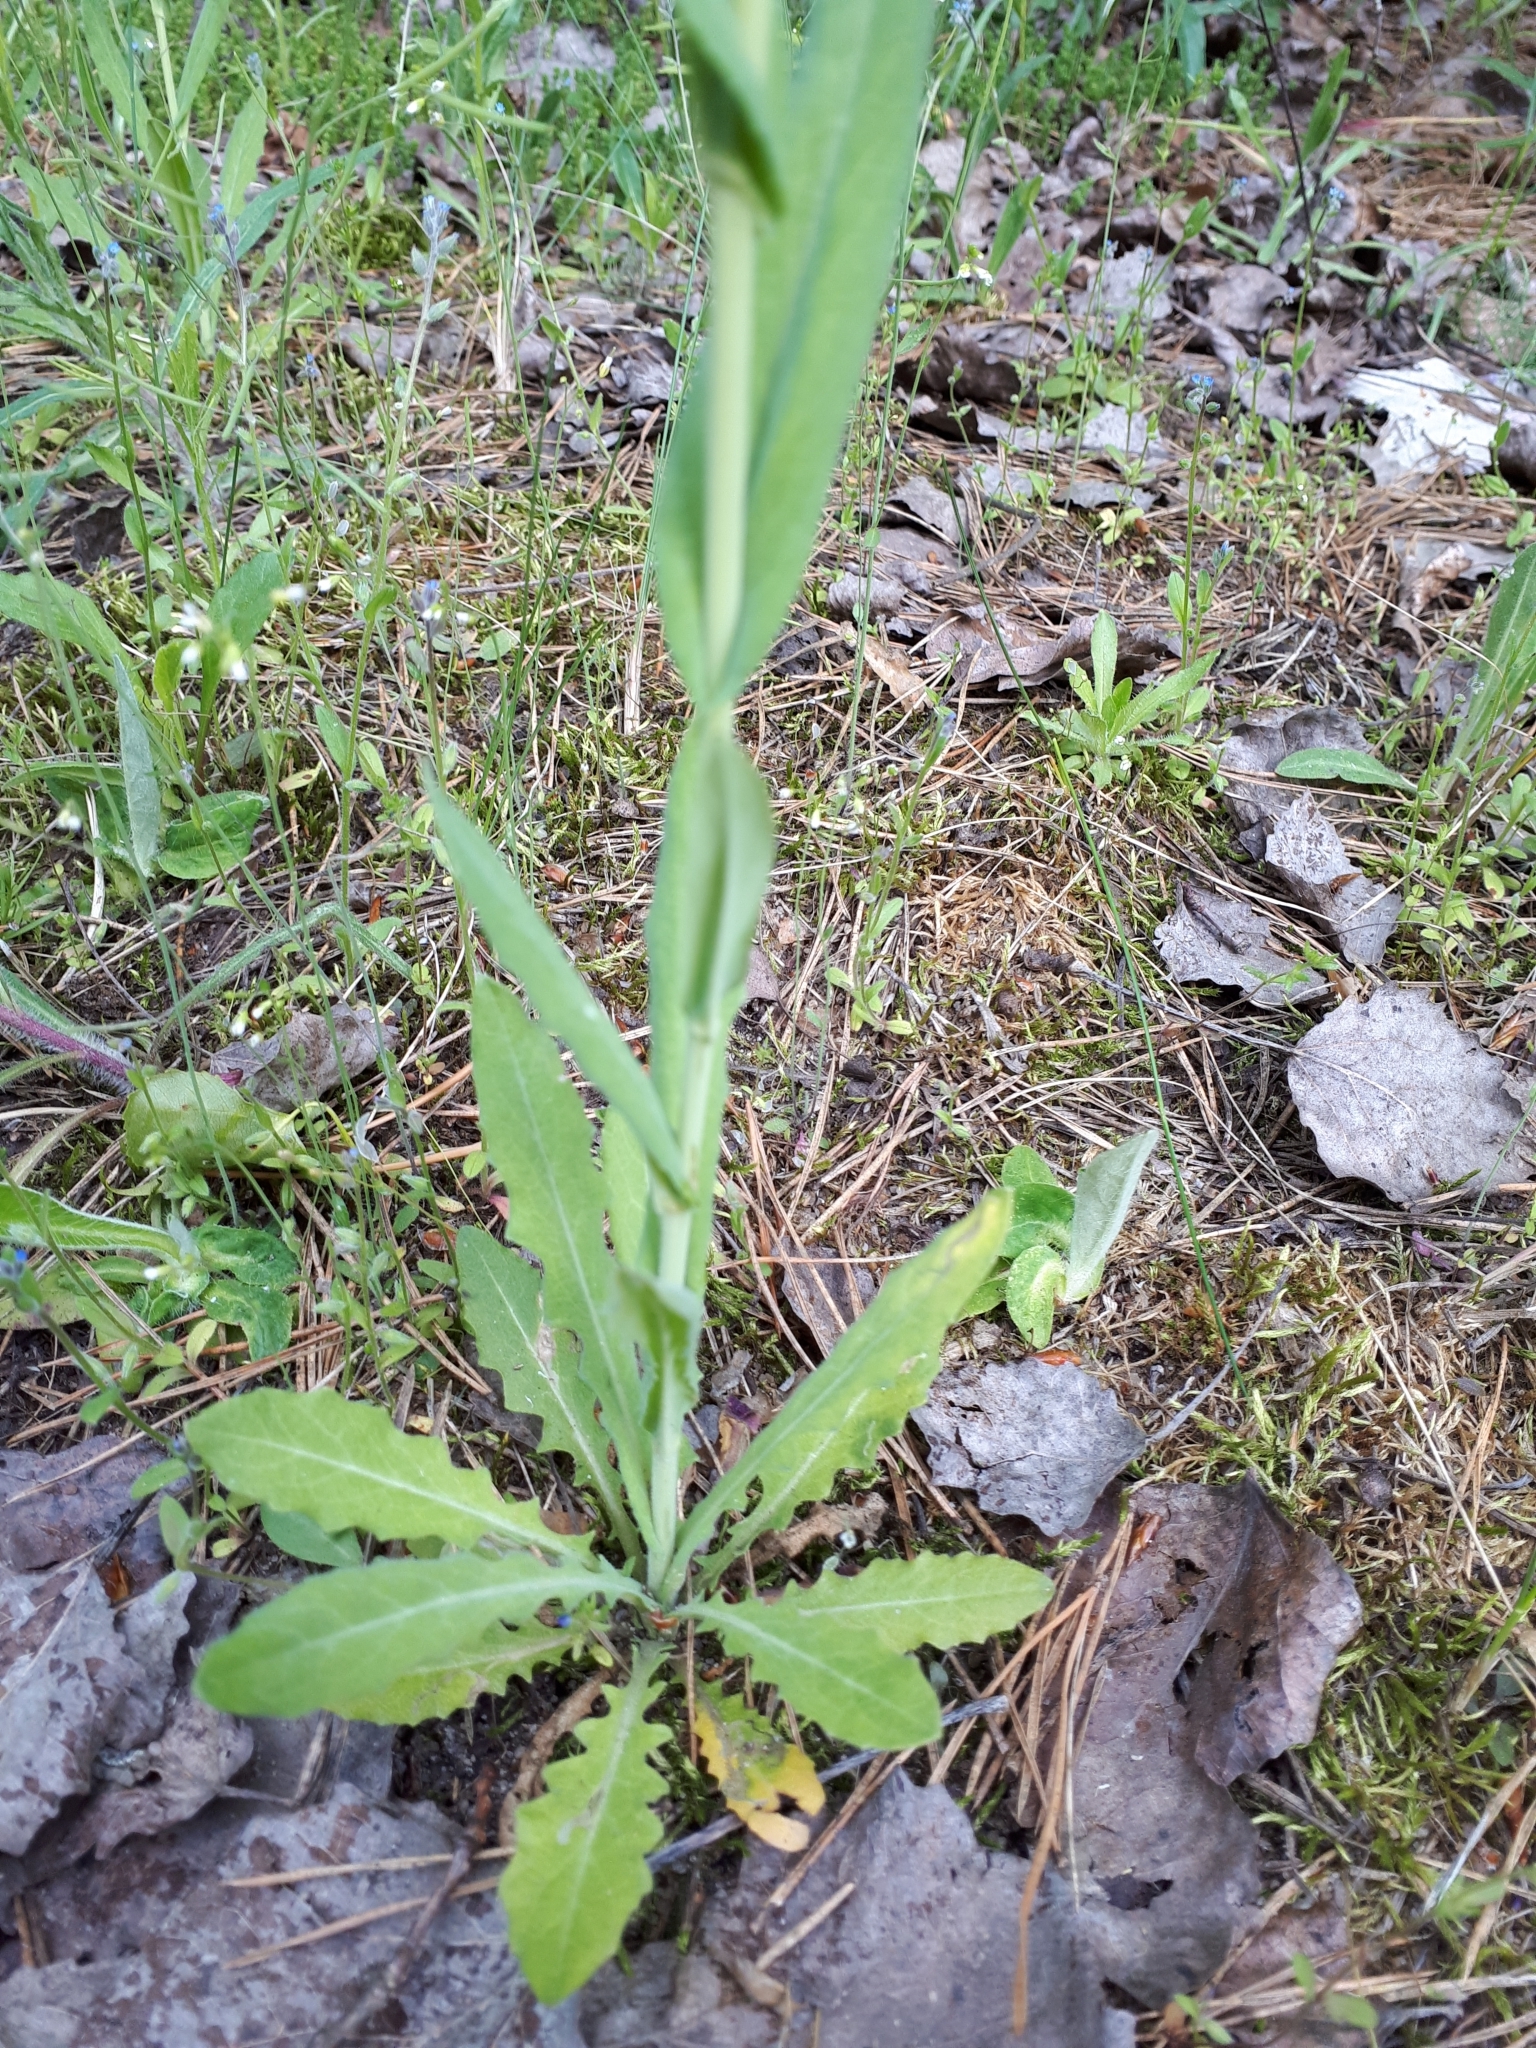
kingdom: Plantae
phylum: Tracheophyta
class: Magnoliopsida
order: Brassicales
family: Brassicaceae
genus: Turritis
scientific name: Turritis glabra
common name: Tower rockcress
